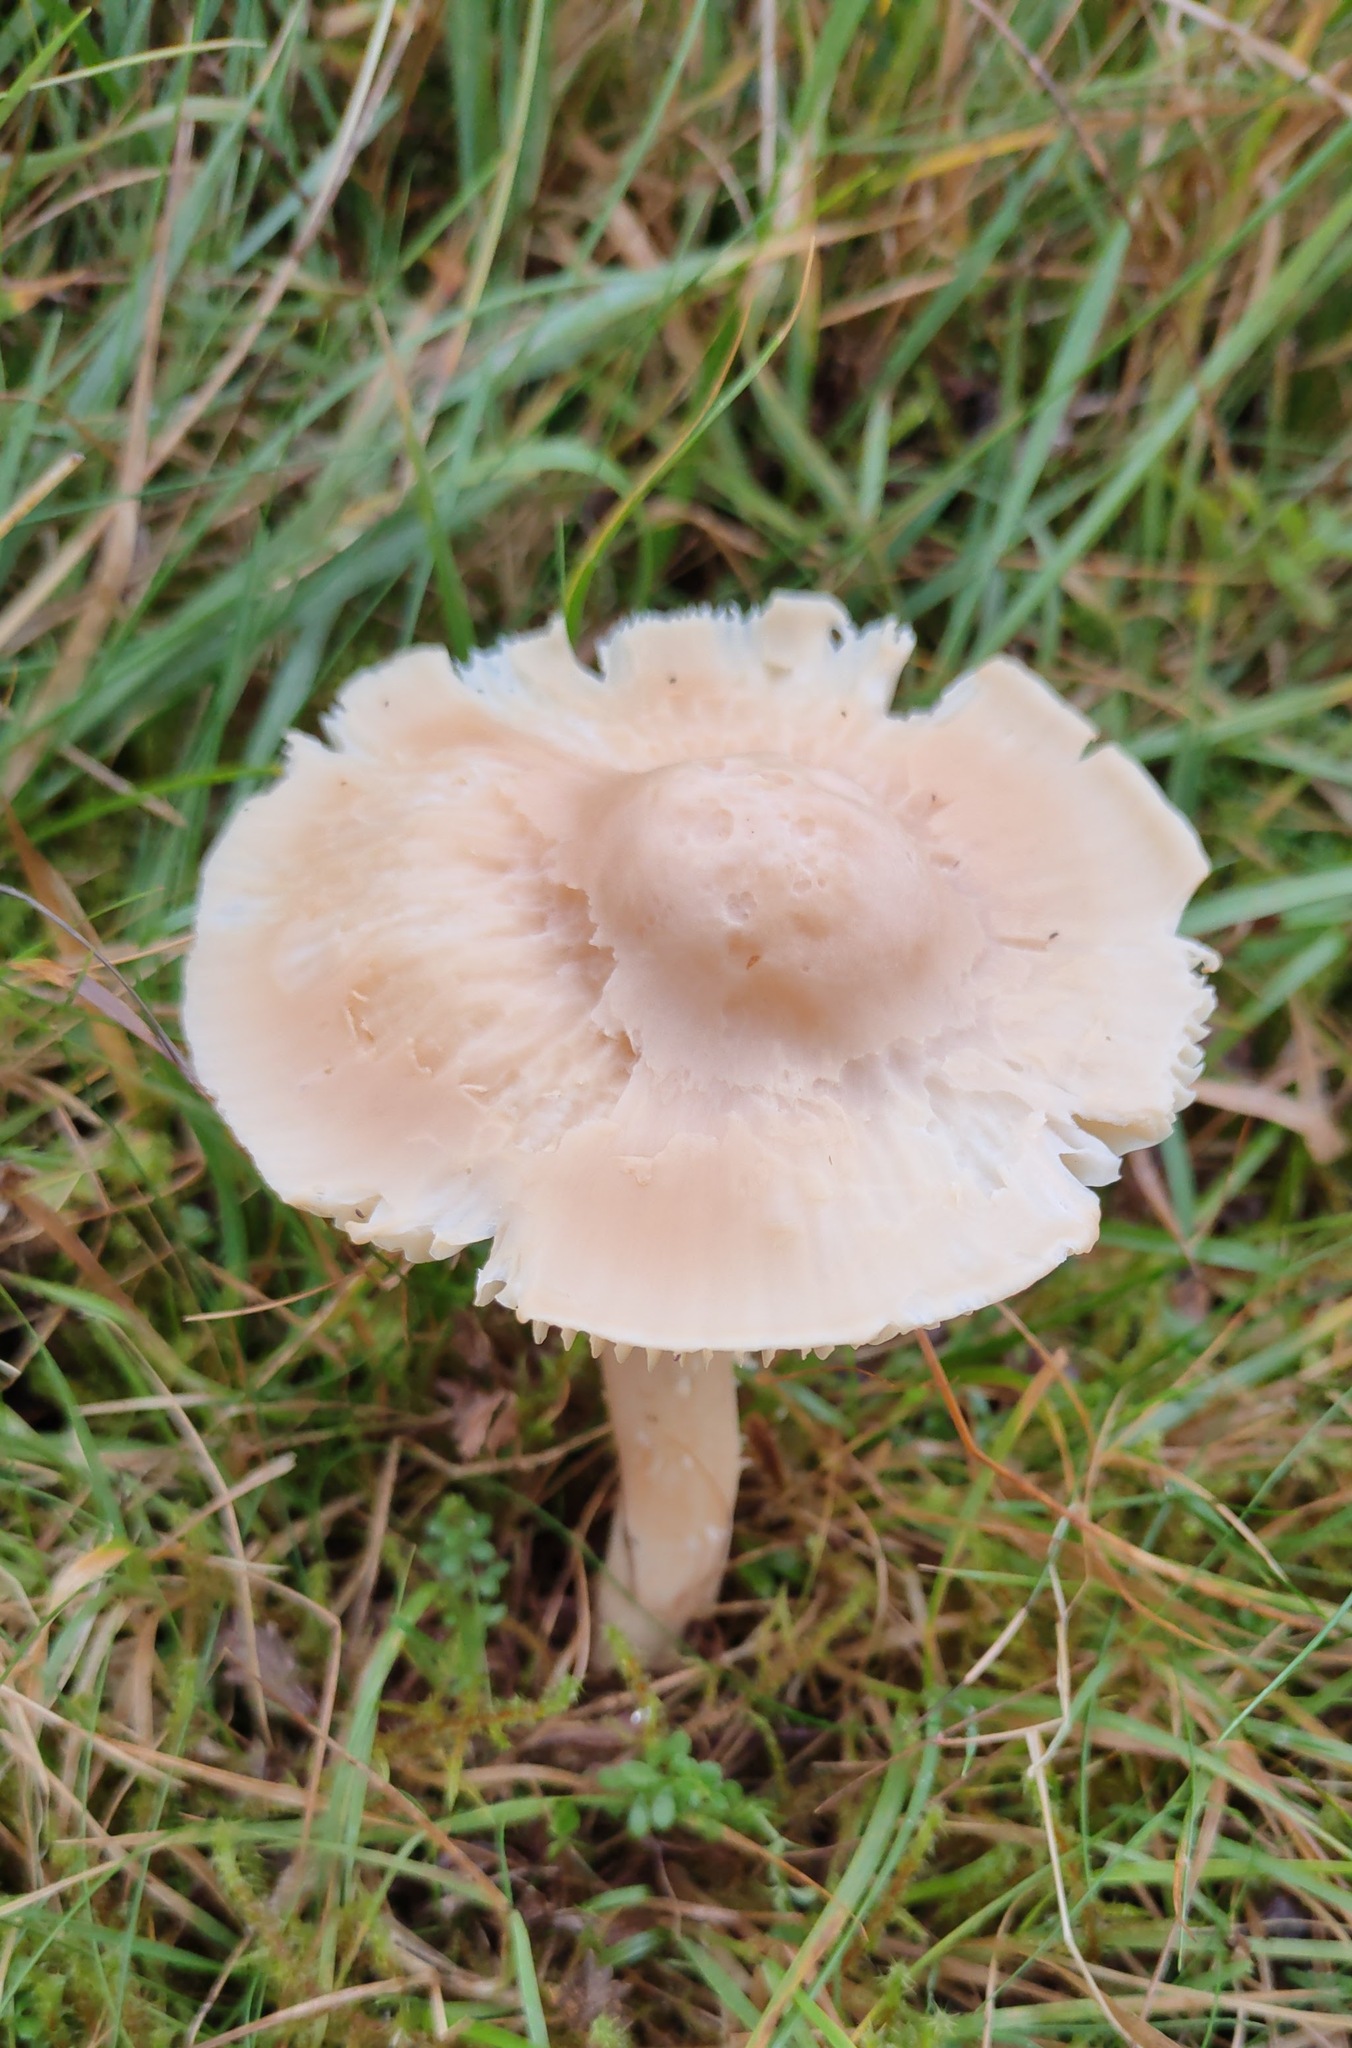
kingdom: Fungi
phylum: Basidiomycota
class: Agaricomycetes
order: Agaricales
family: Hygrophoraceae
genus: Cuphophyllus
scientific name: Cuphophyllus pratensis
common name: Meadow waxcap
